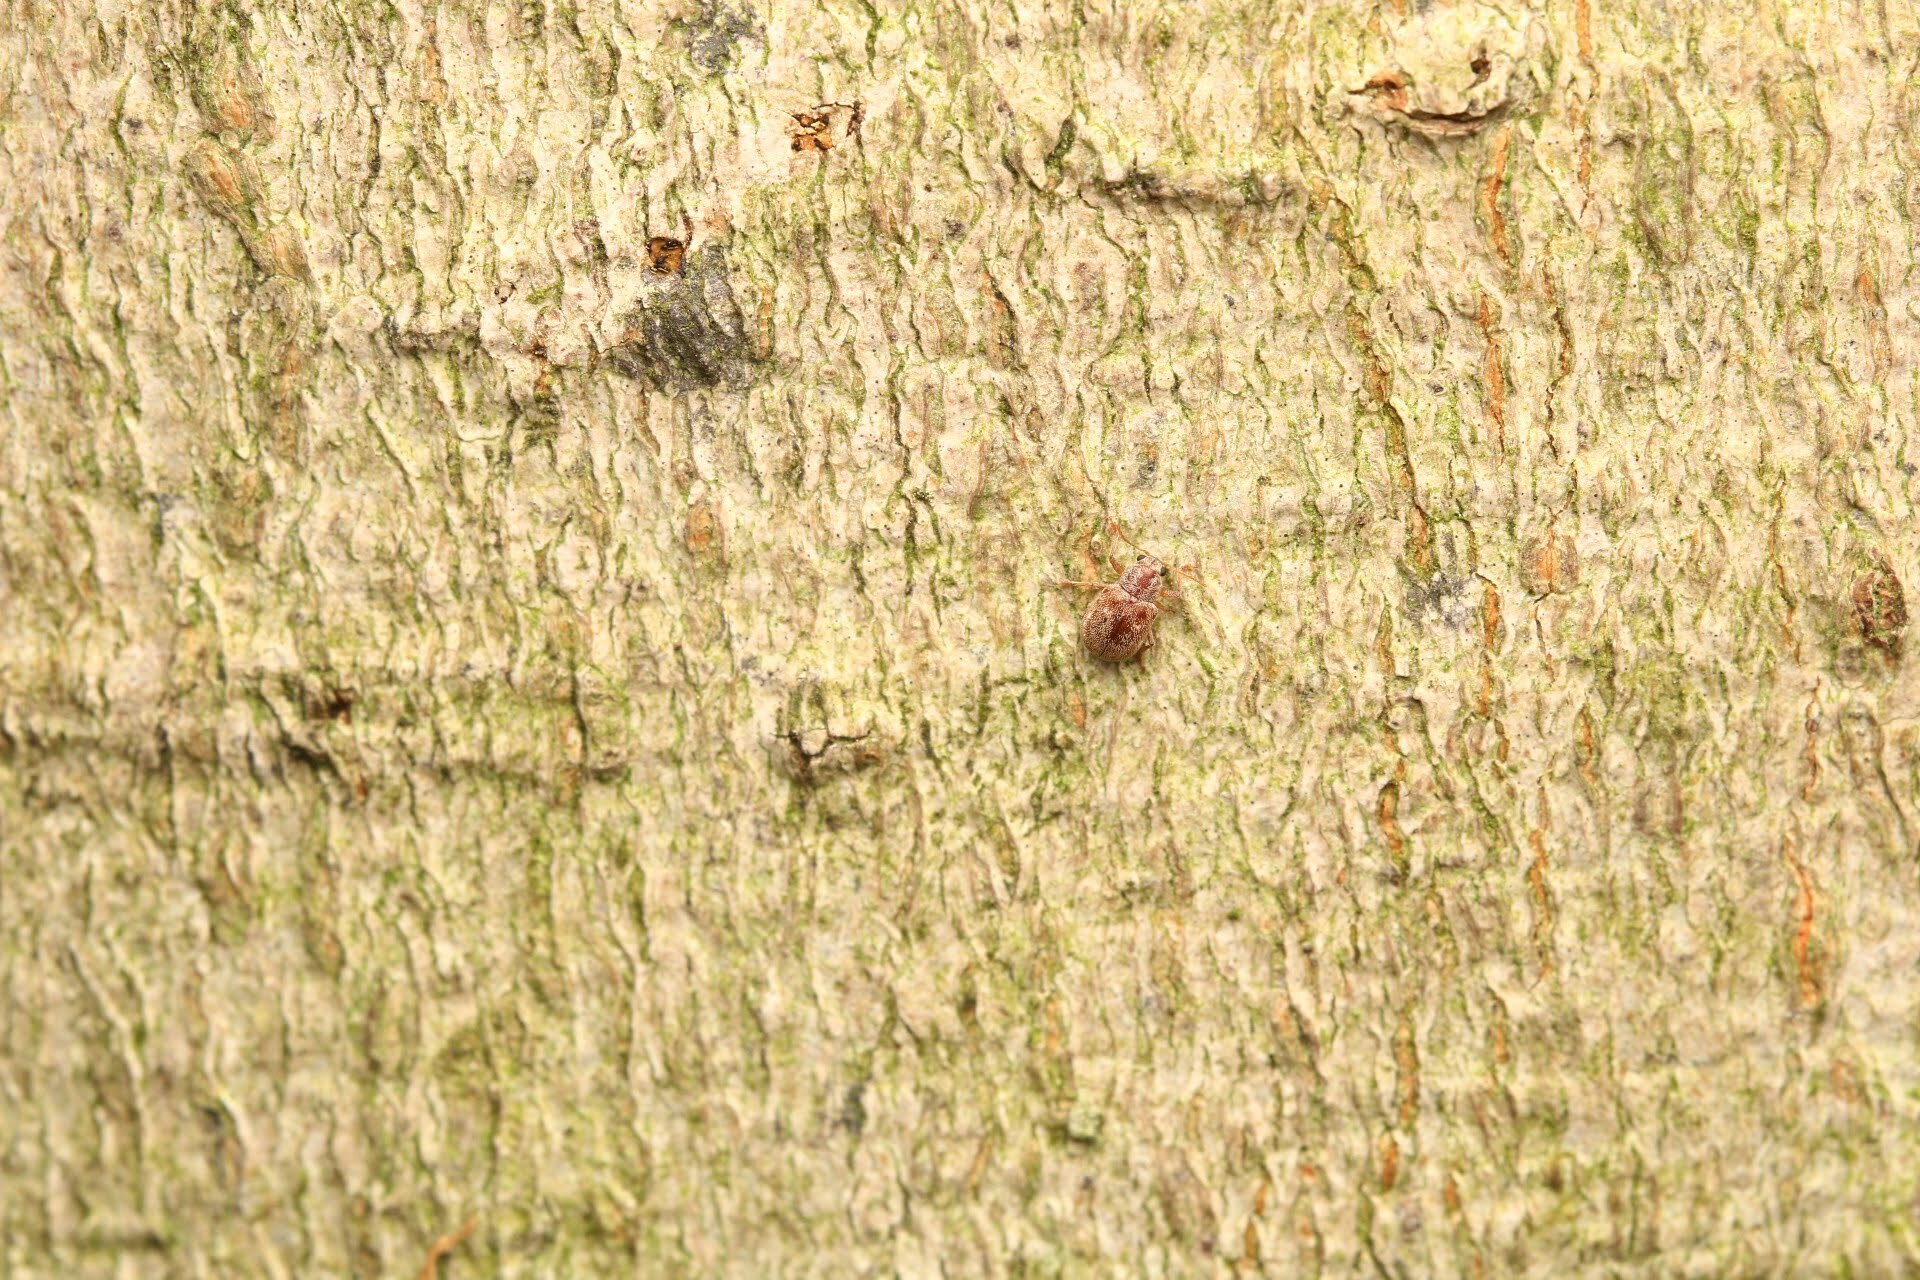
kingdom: Animalia
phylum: Arthropoda
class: Insecta
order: Coleoptera
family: Chrysomelidae
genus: Demotina
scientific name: Demotina modesta
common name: Leaf beetle
